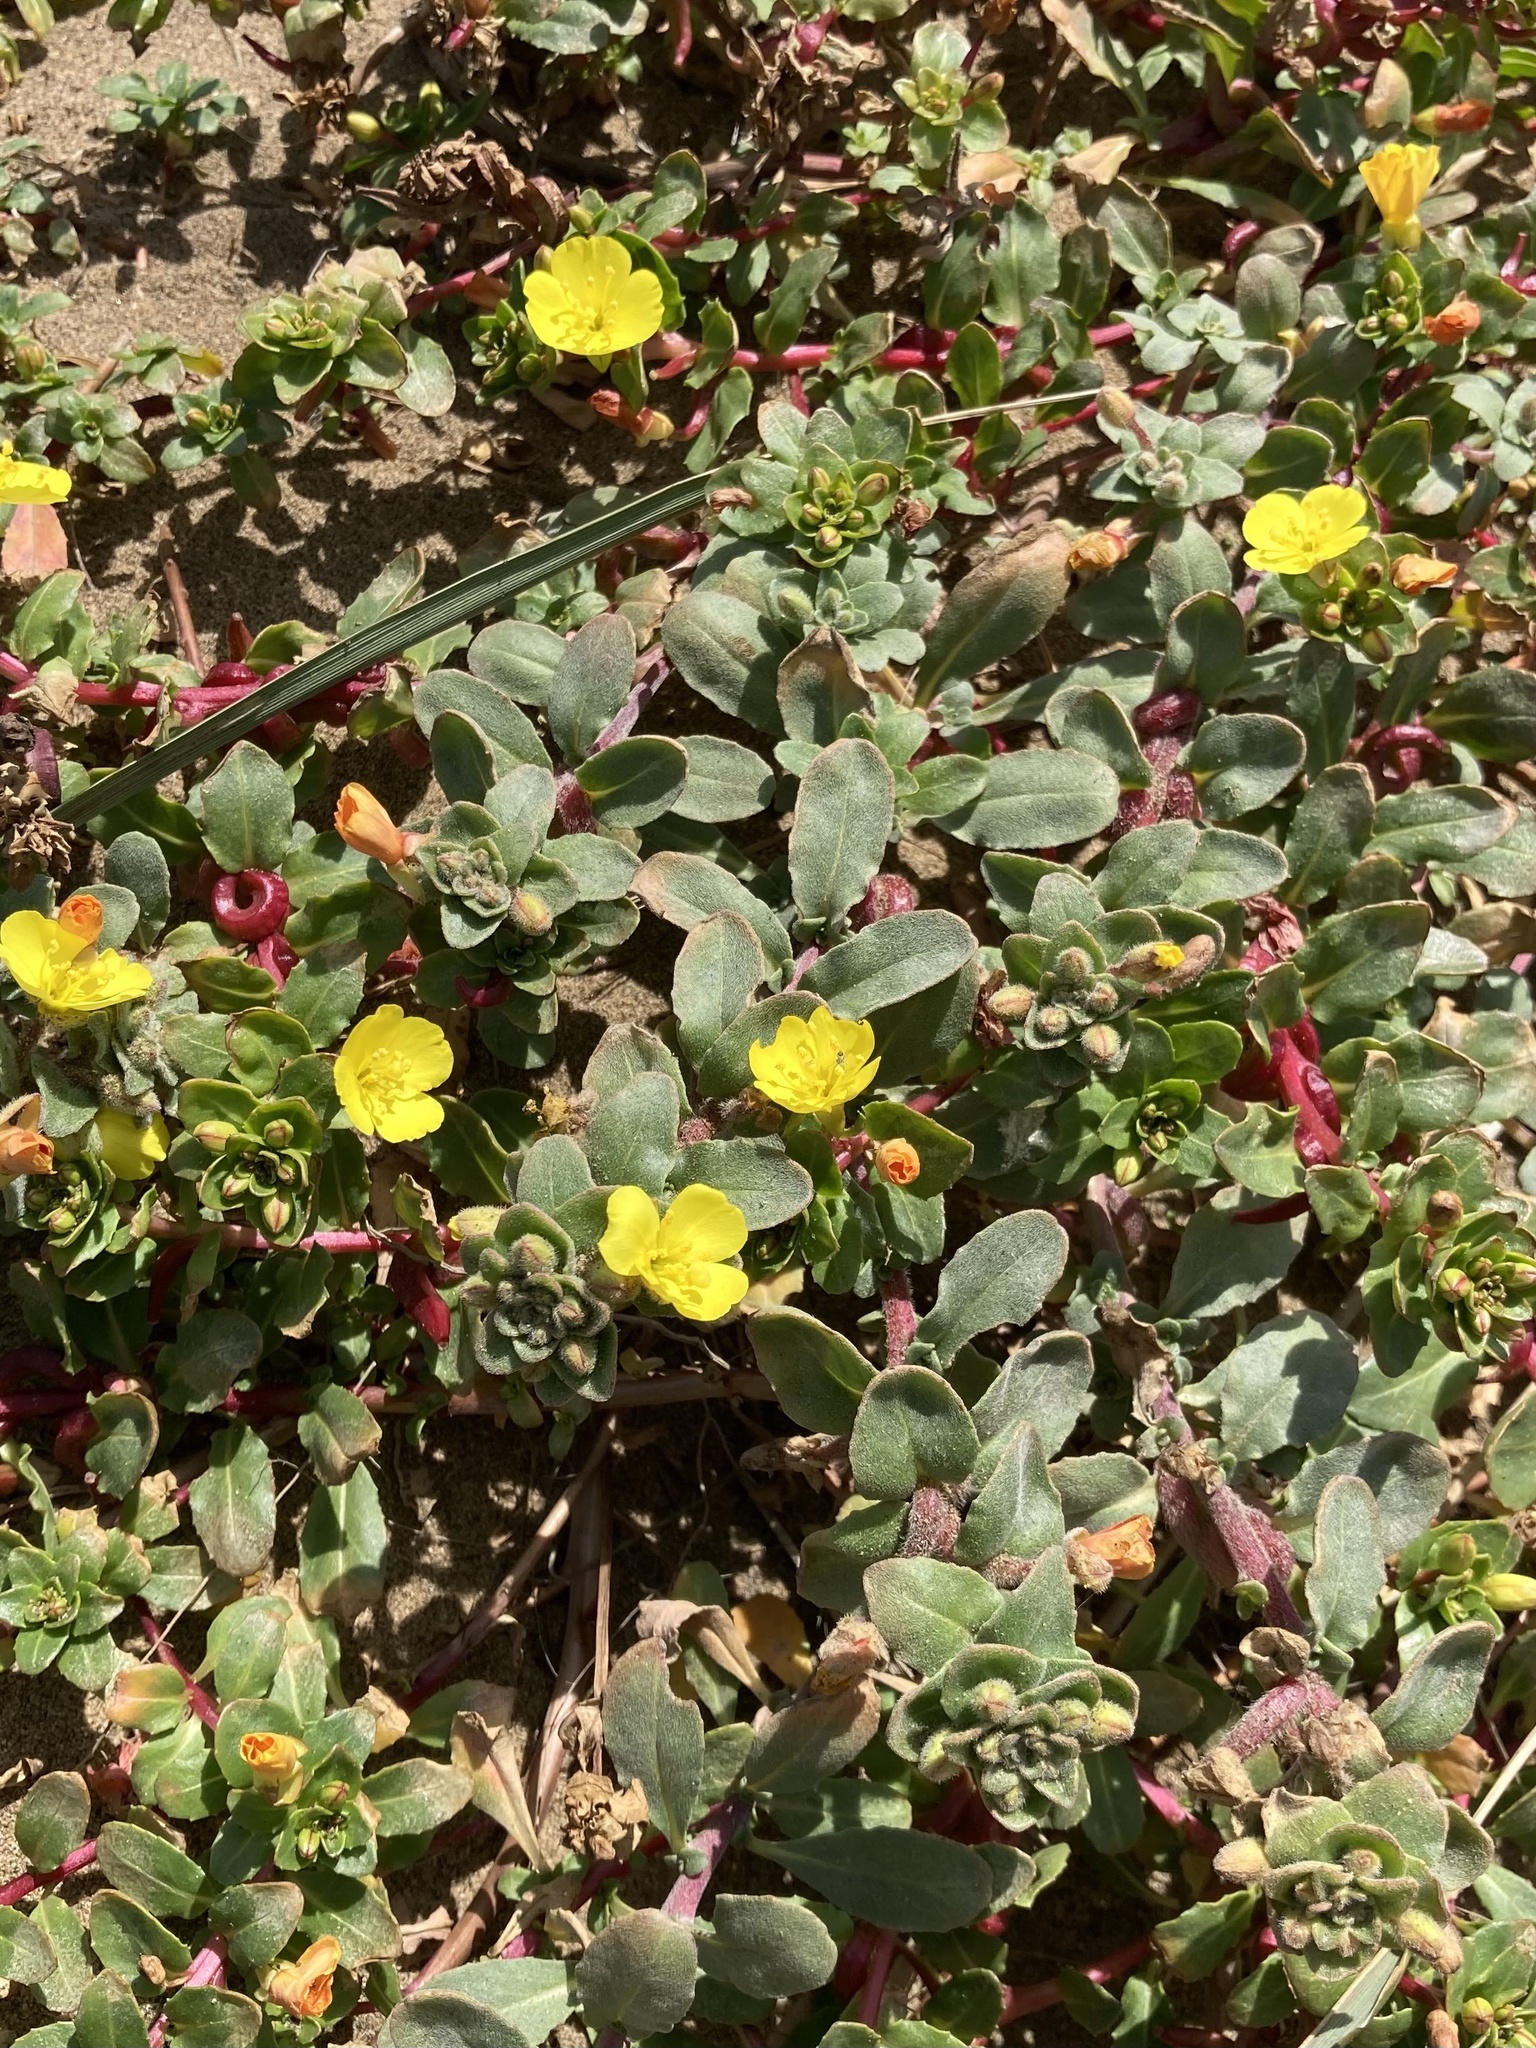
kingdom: Plantae
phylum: Tracheophyta
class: Magnoliopsida
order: Myrtales
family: Onagraceae
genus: Camissoniopsis
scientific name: Camissoniopsis cheiranthifolia
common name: Beach suncup
